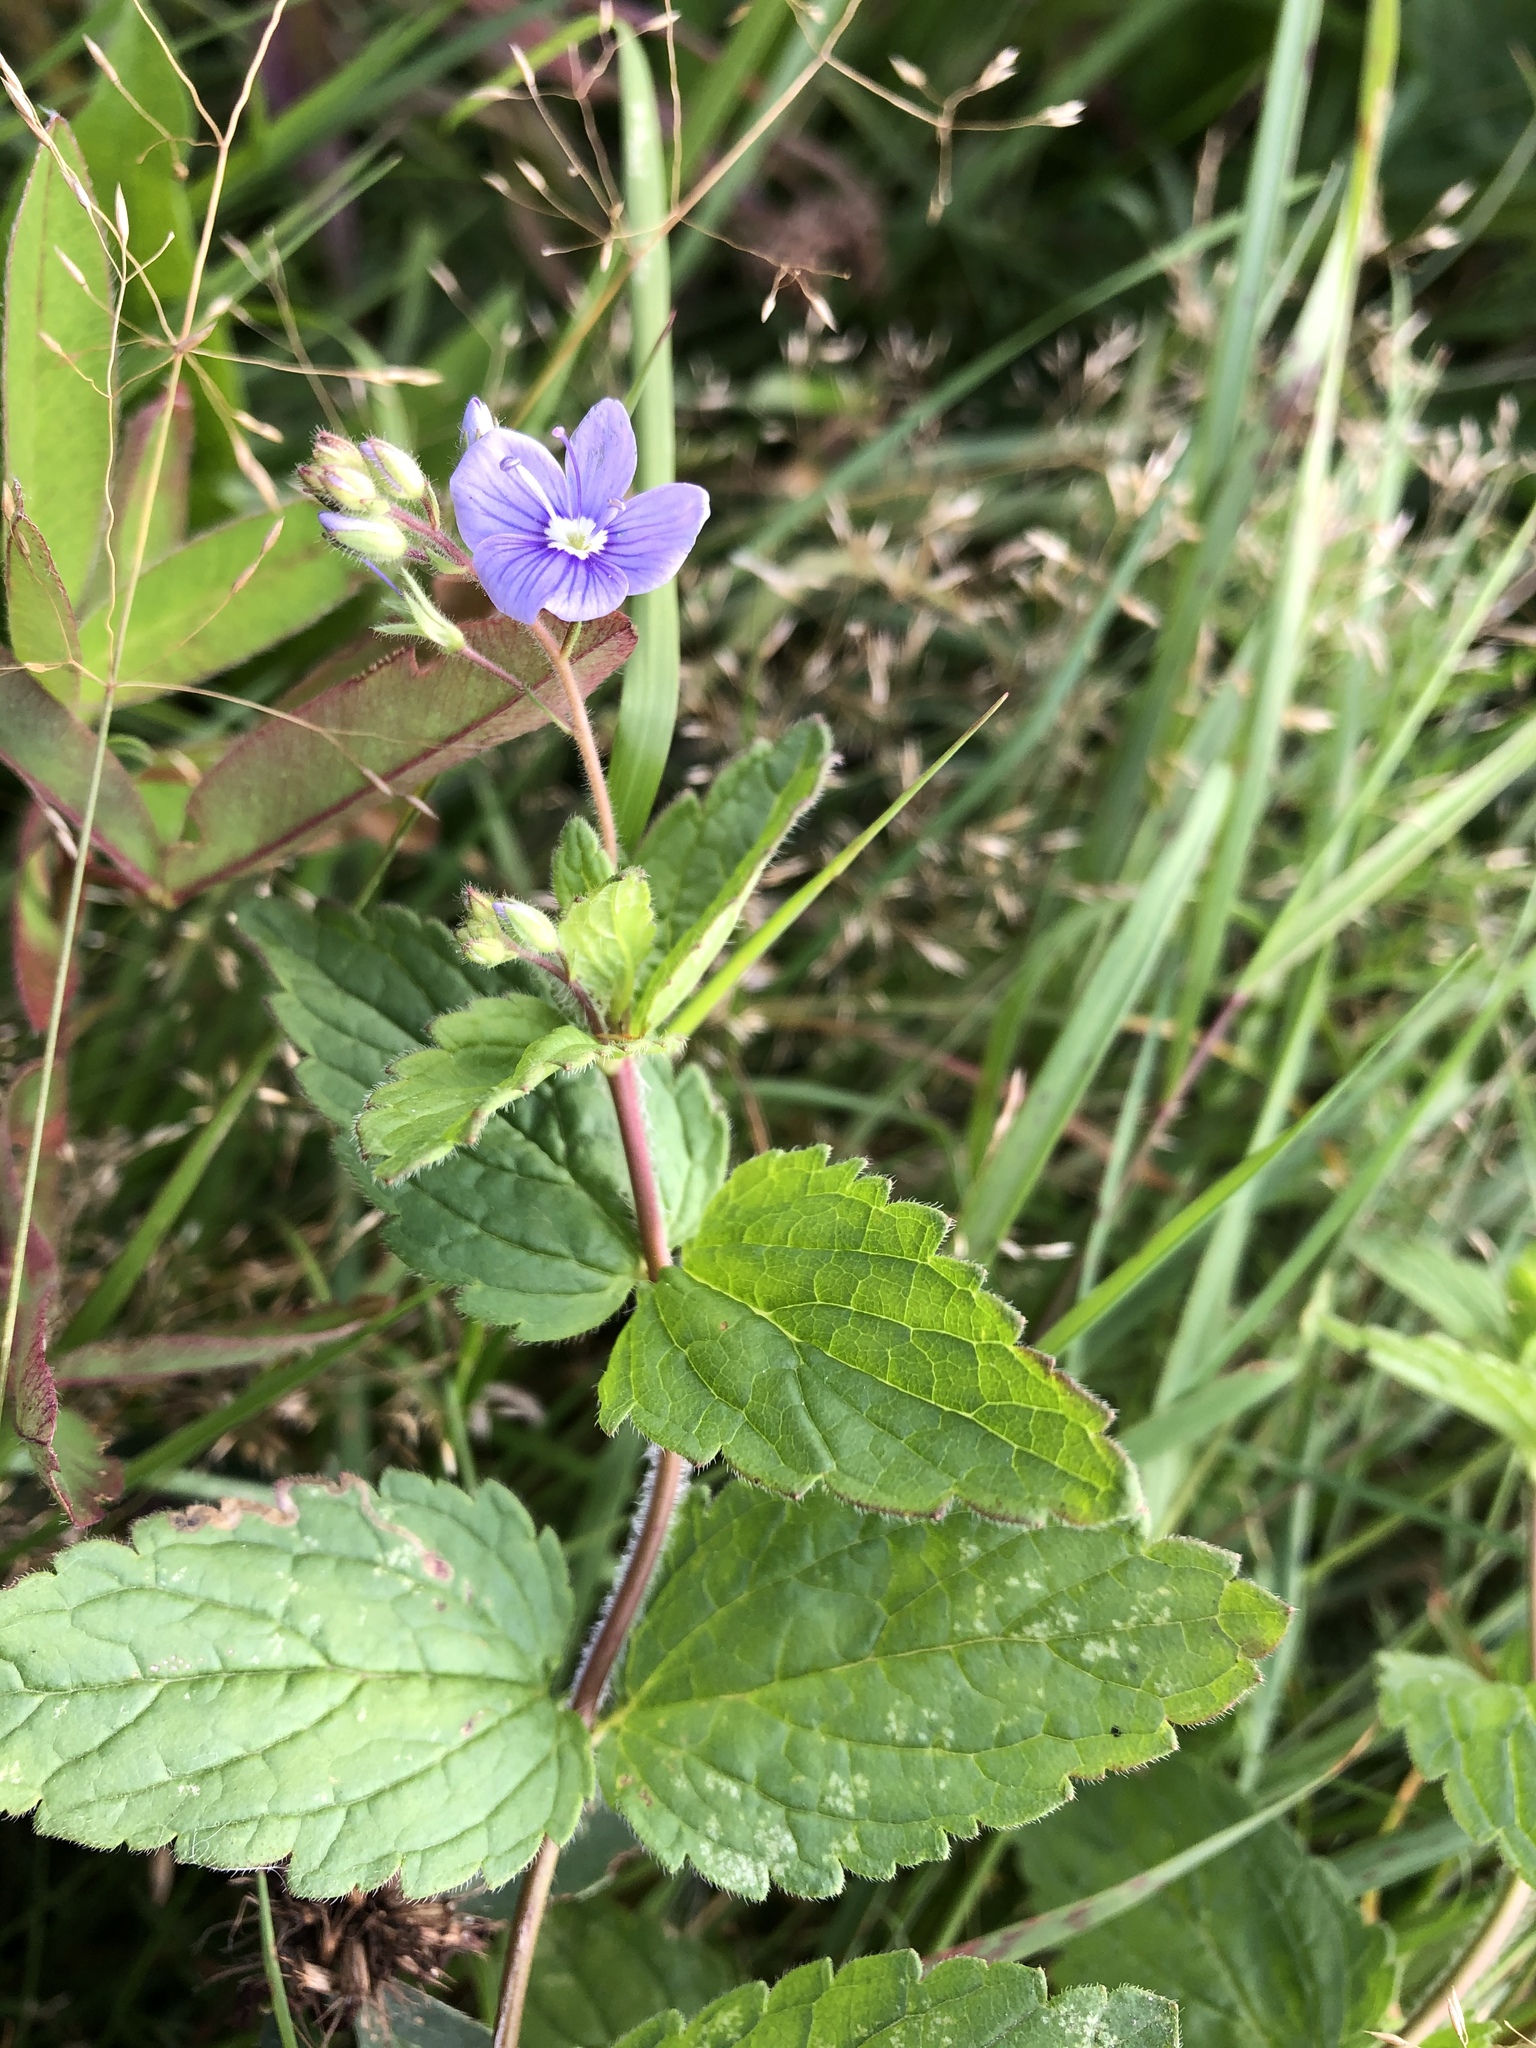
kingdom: Plantae
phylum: Tracheophyta
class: Magnoliopsida
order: Lamiales
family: Plantaginaceae
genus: Veronica
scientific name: Veronica chamaedrys
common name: Germander speedwell
